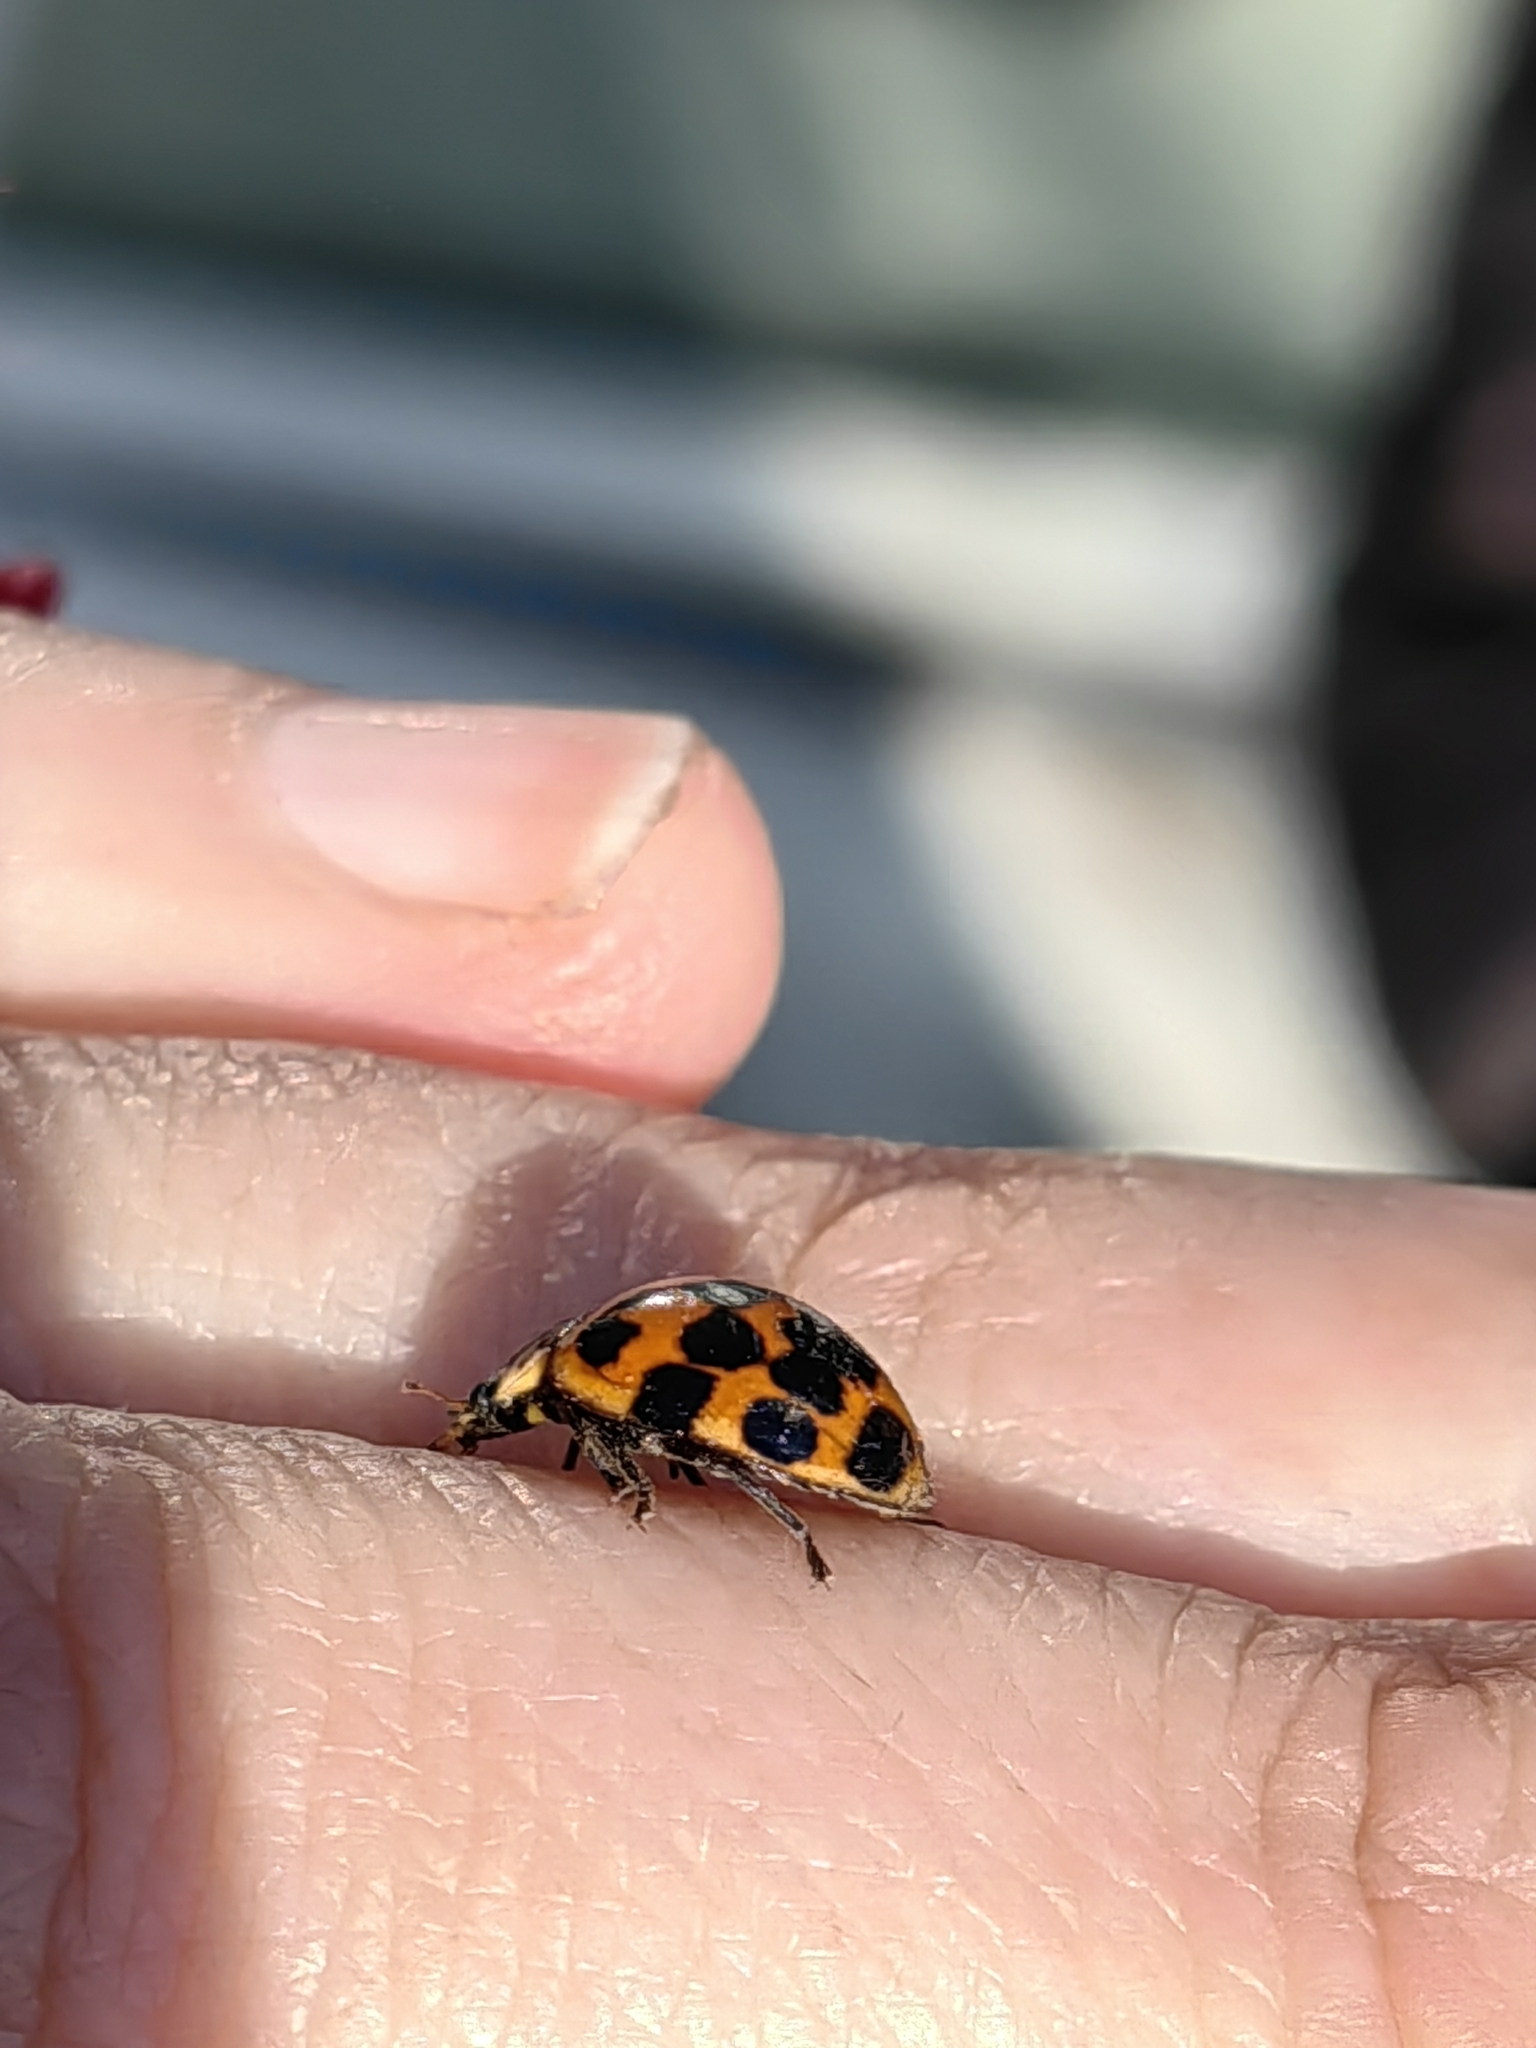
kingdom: Animalia
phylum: Arthropoda
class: Insecta
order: Coleoptera
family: Coccinellidae
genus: Harmonia
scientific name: Harmonia axyridis
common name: Harlequin ladybird
